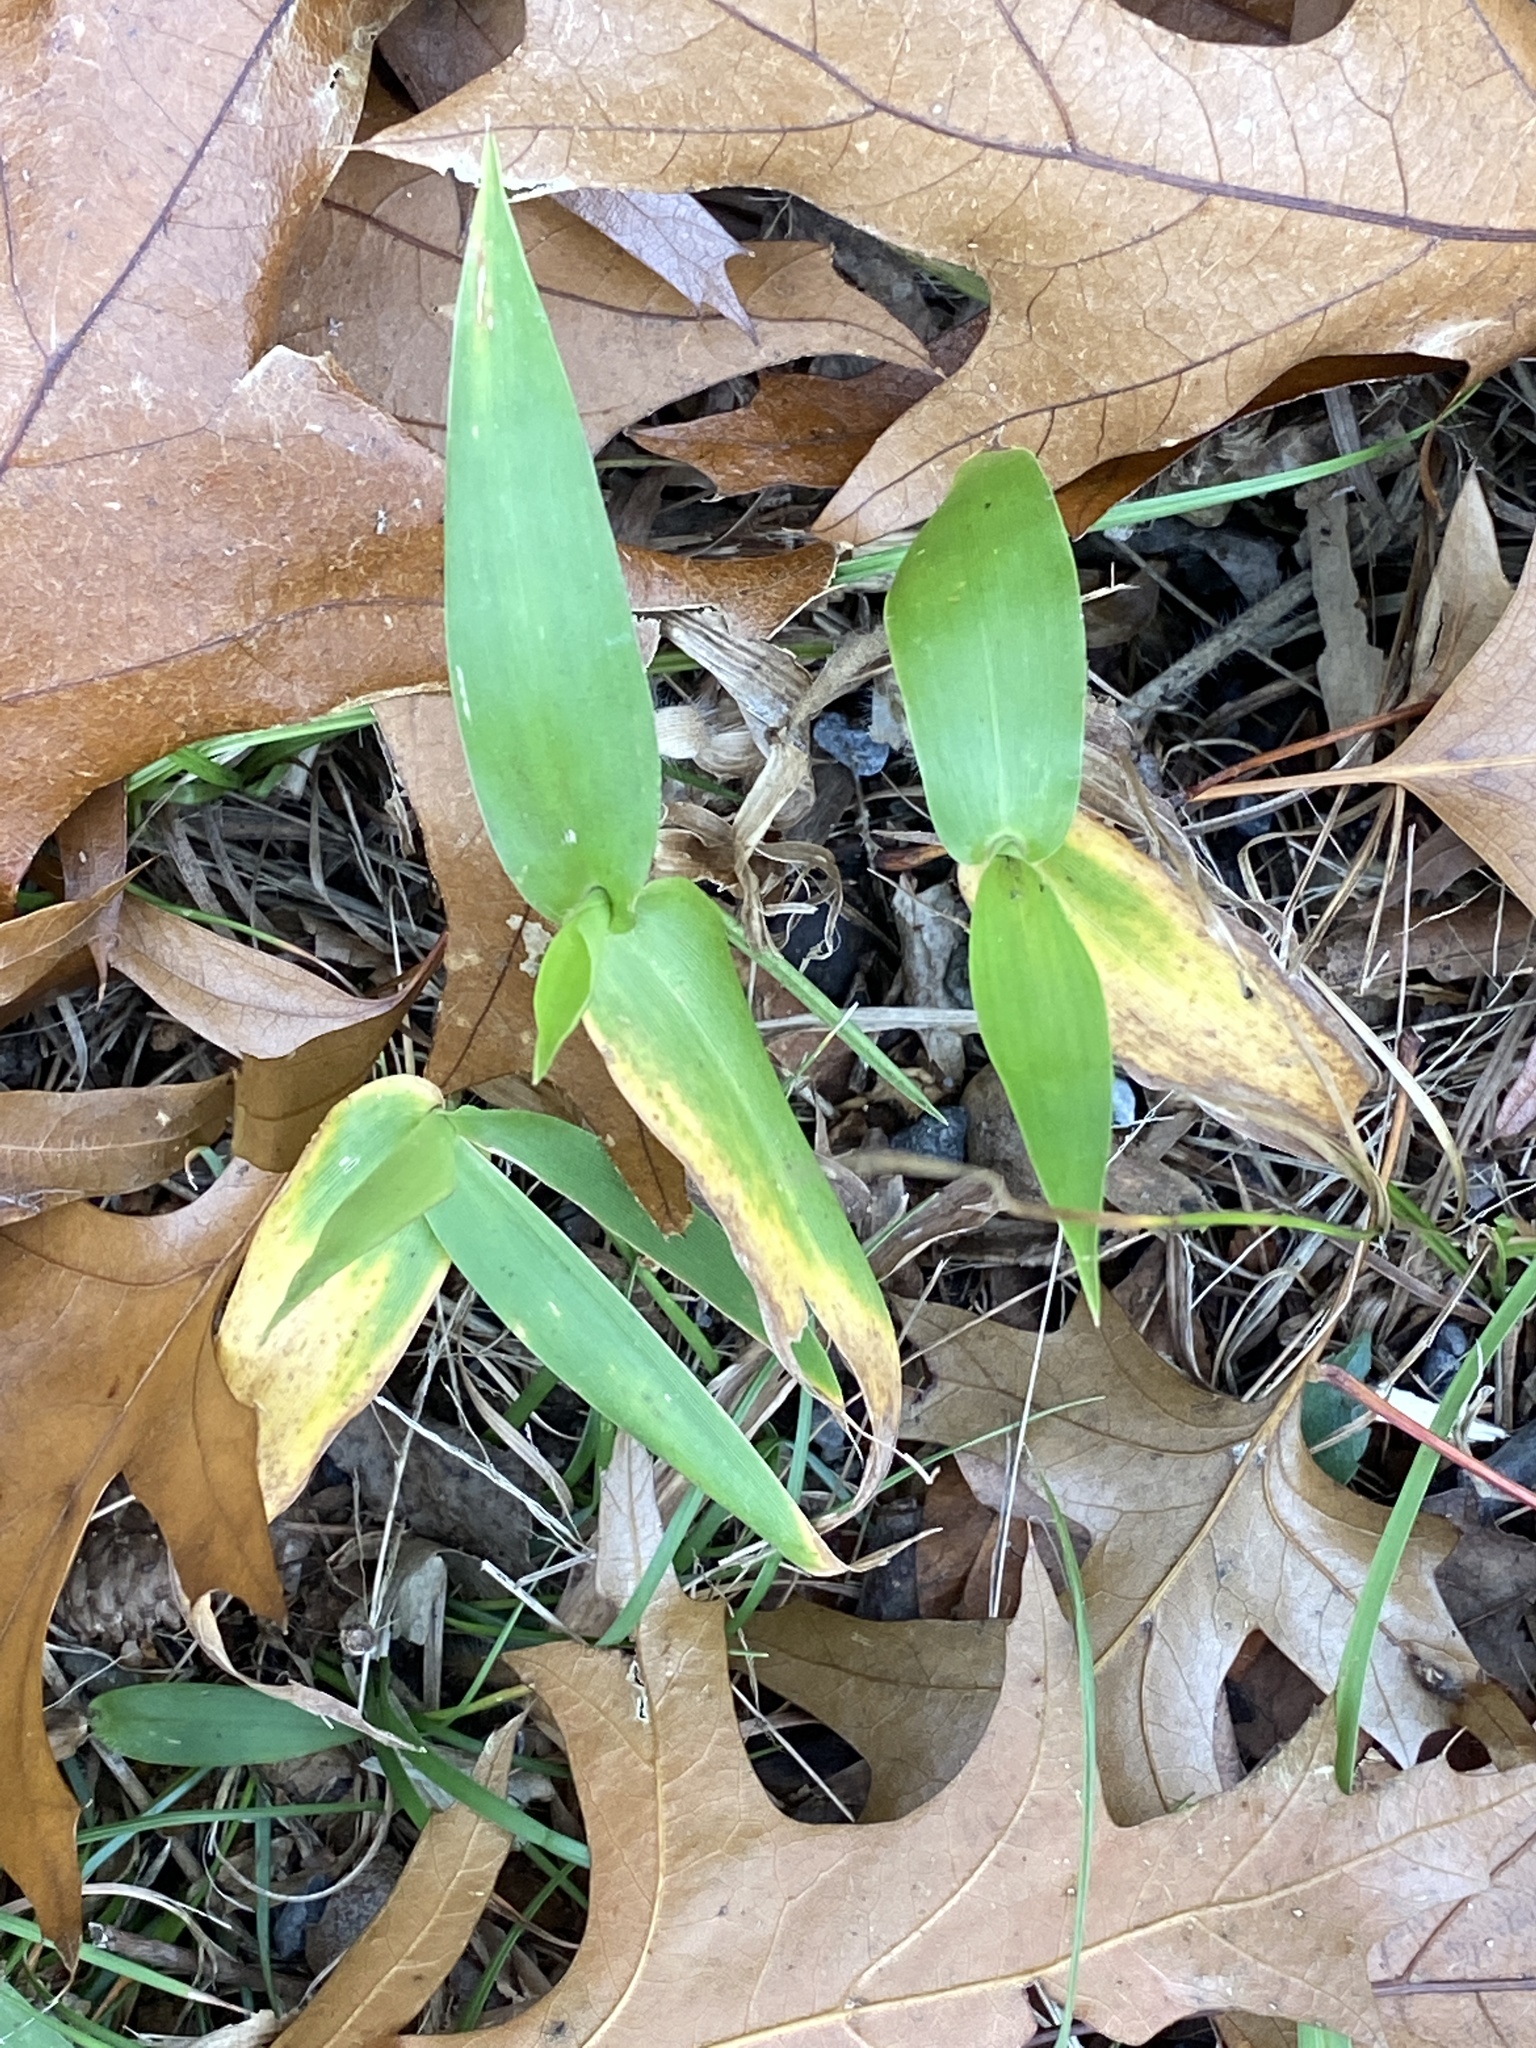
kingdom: Plantae
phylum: Tracheophyta
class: Liliopsida
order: Poales
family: Poaceae
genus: Dichanthelium
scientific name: Dichanthelium clandestinum
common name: Deer-tongue grass
